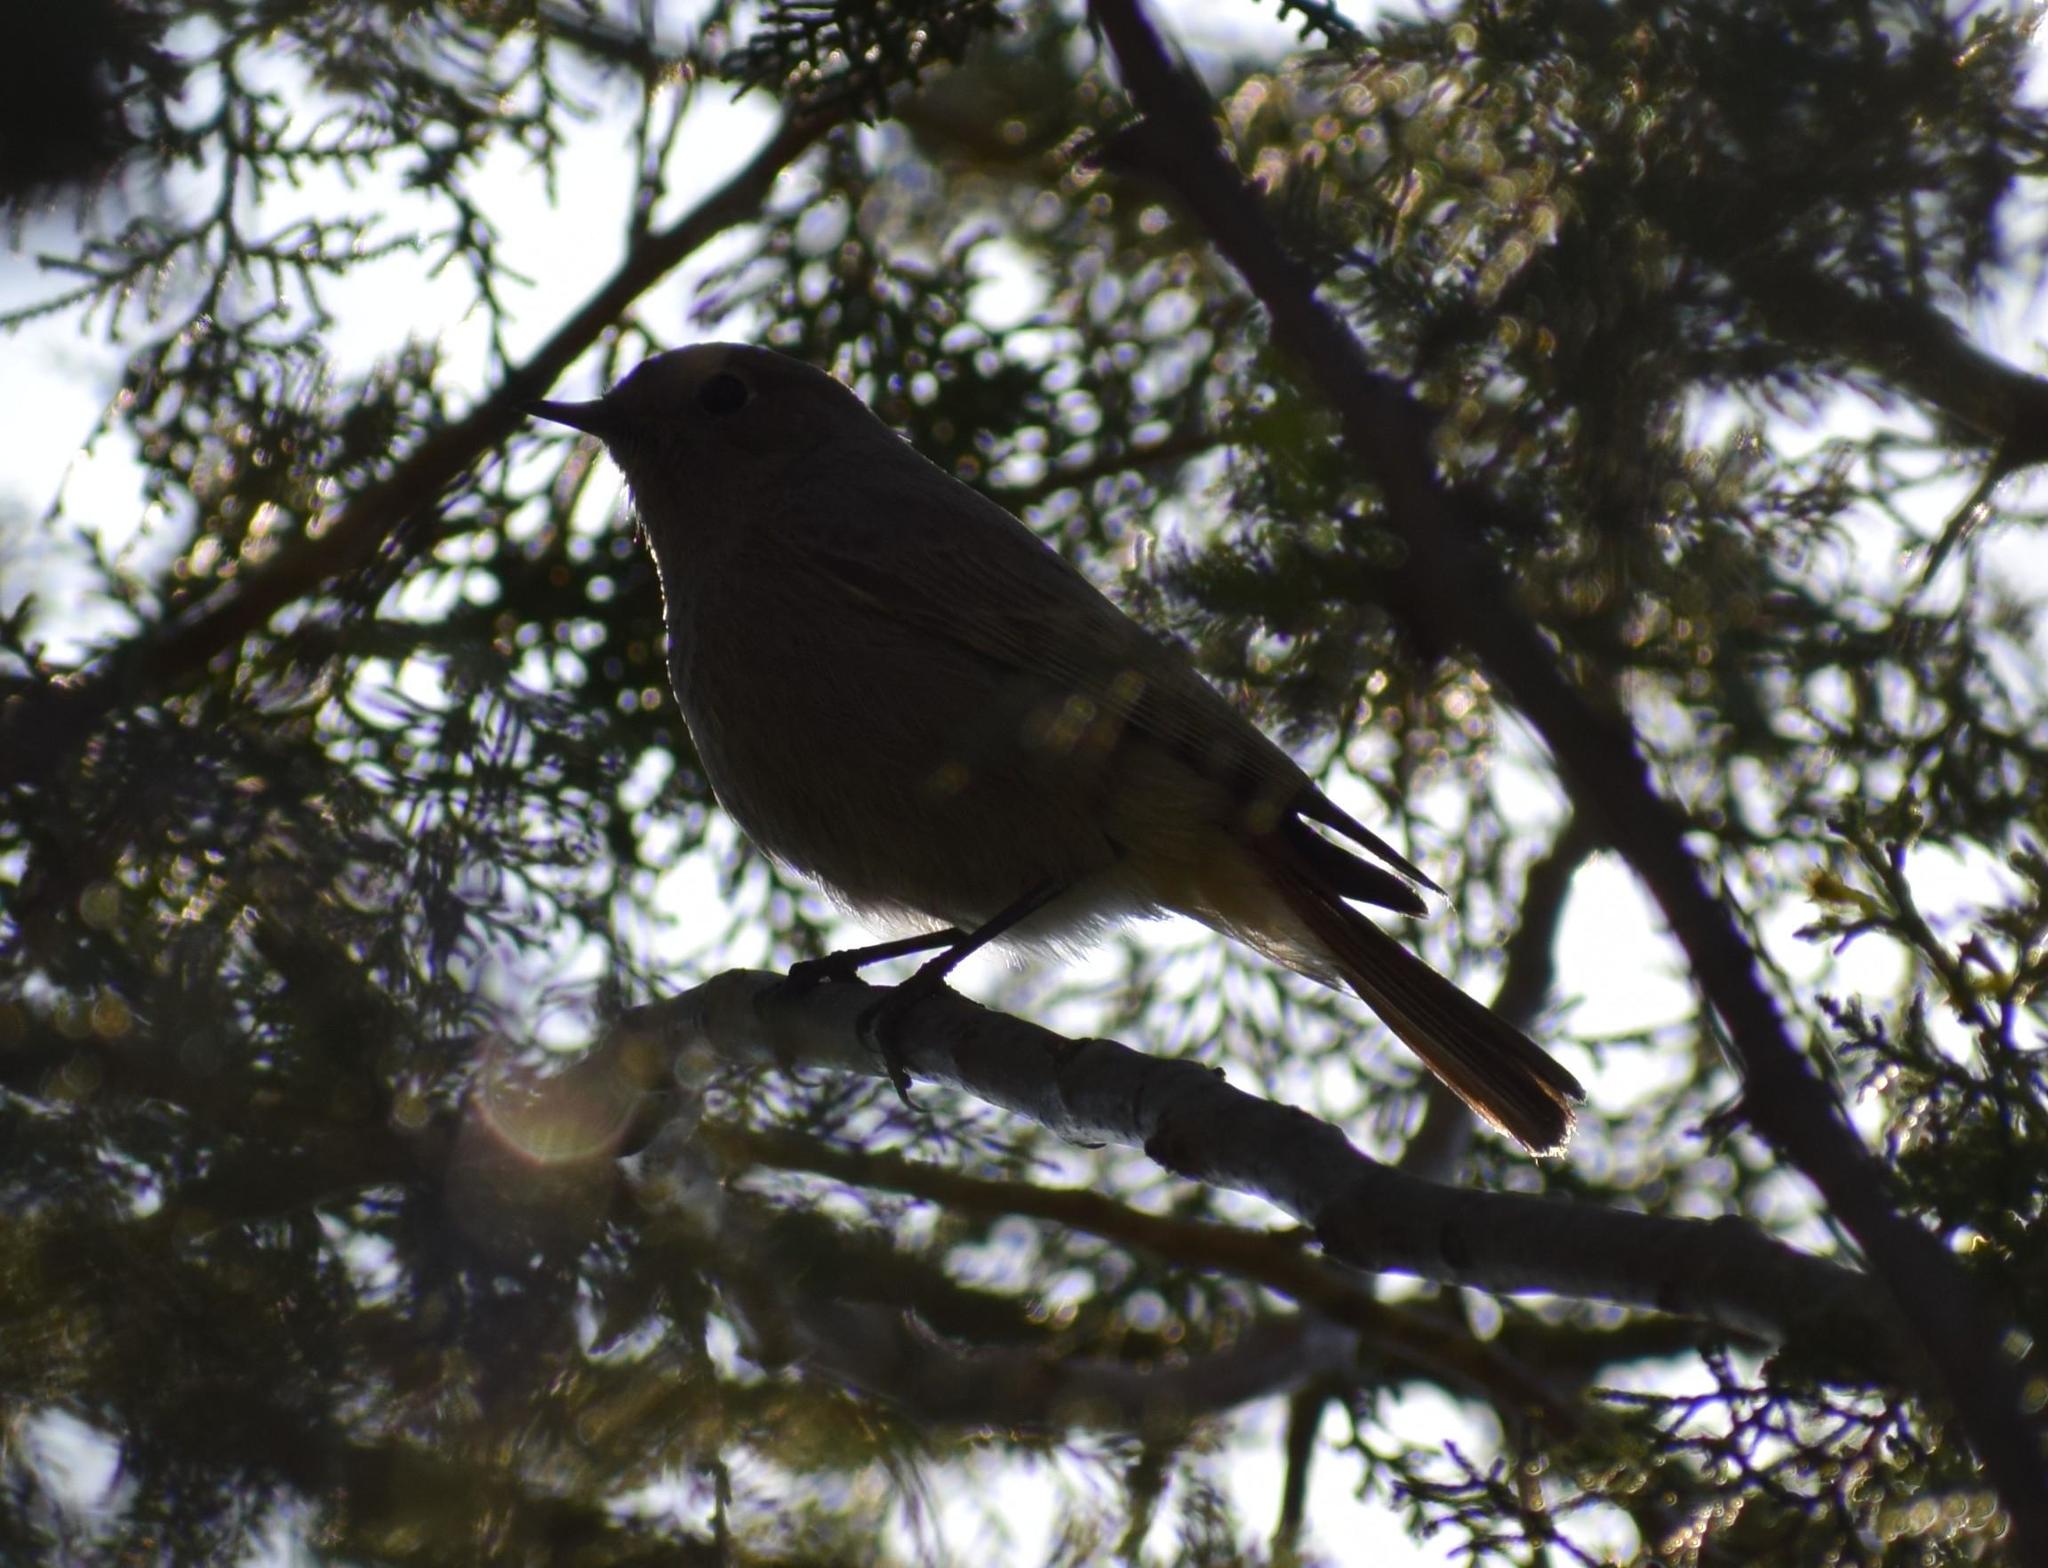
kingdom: Animalia
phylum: Chordata
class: Aves
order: Passeriformes
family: Muscicapidae
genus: Phoenicurus
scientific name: Phoenicurus ochruros
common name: Black redstart
